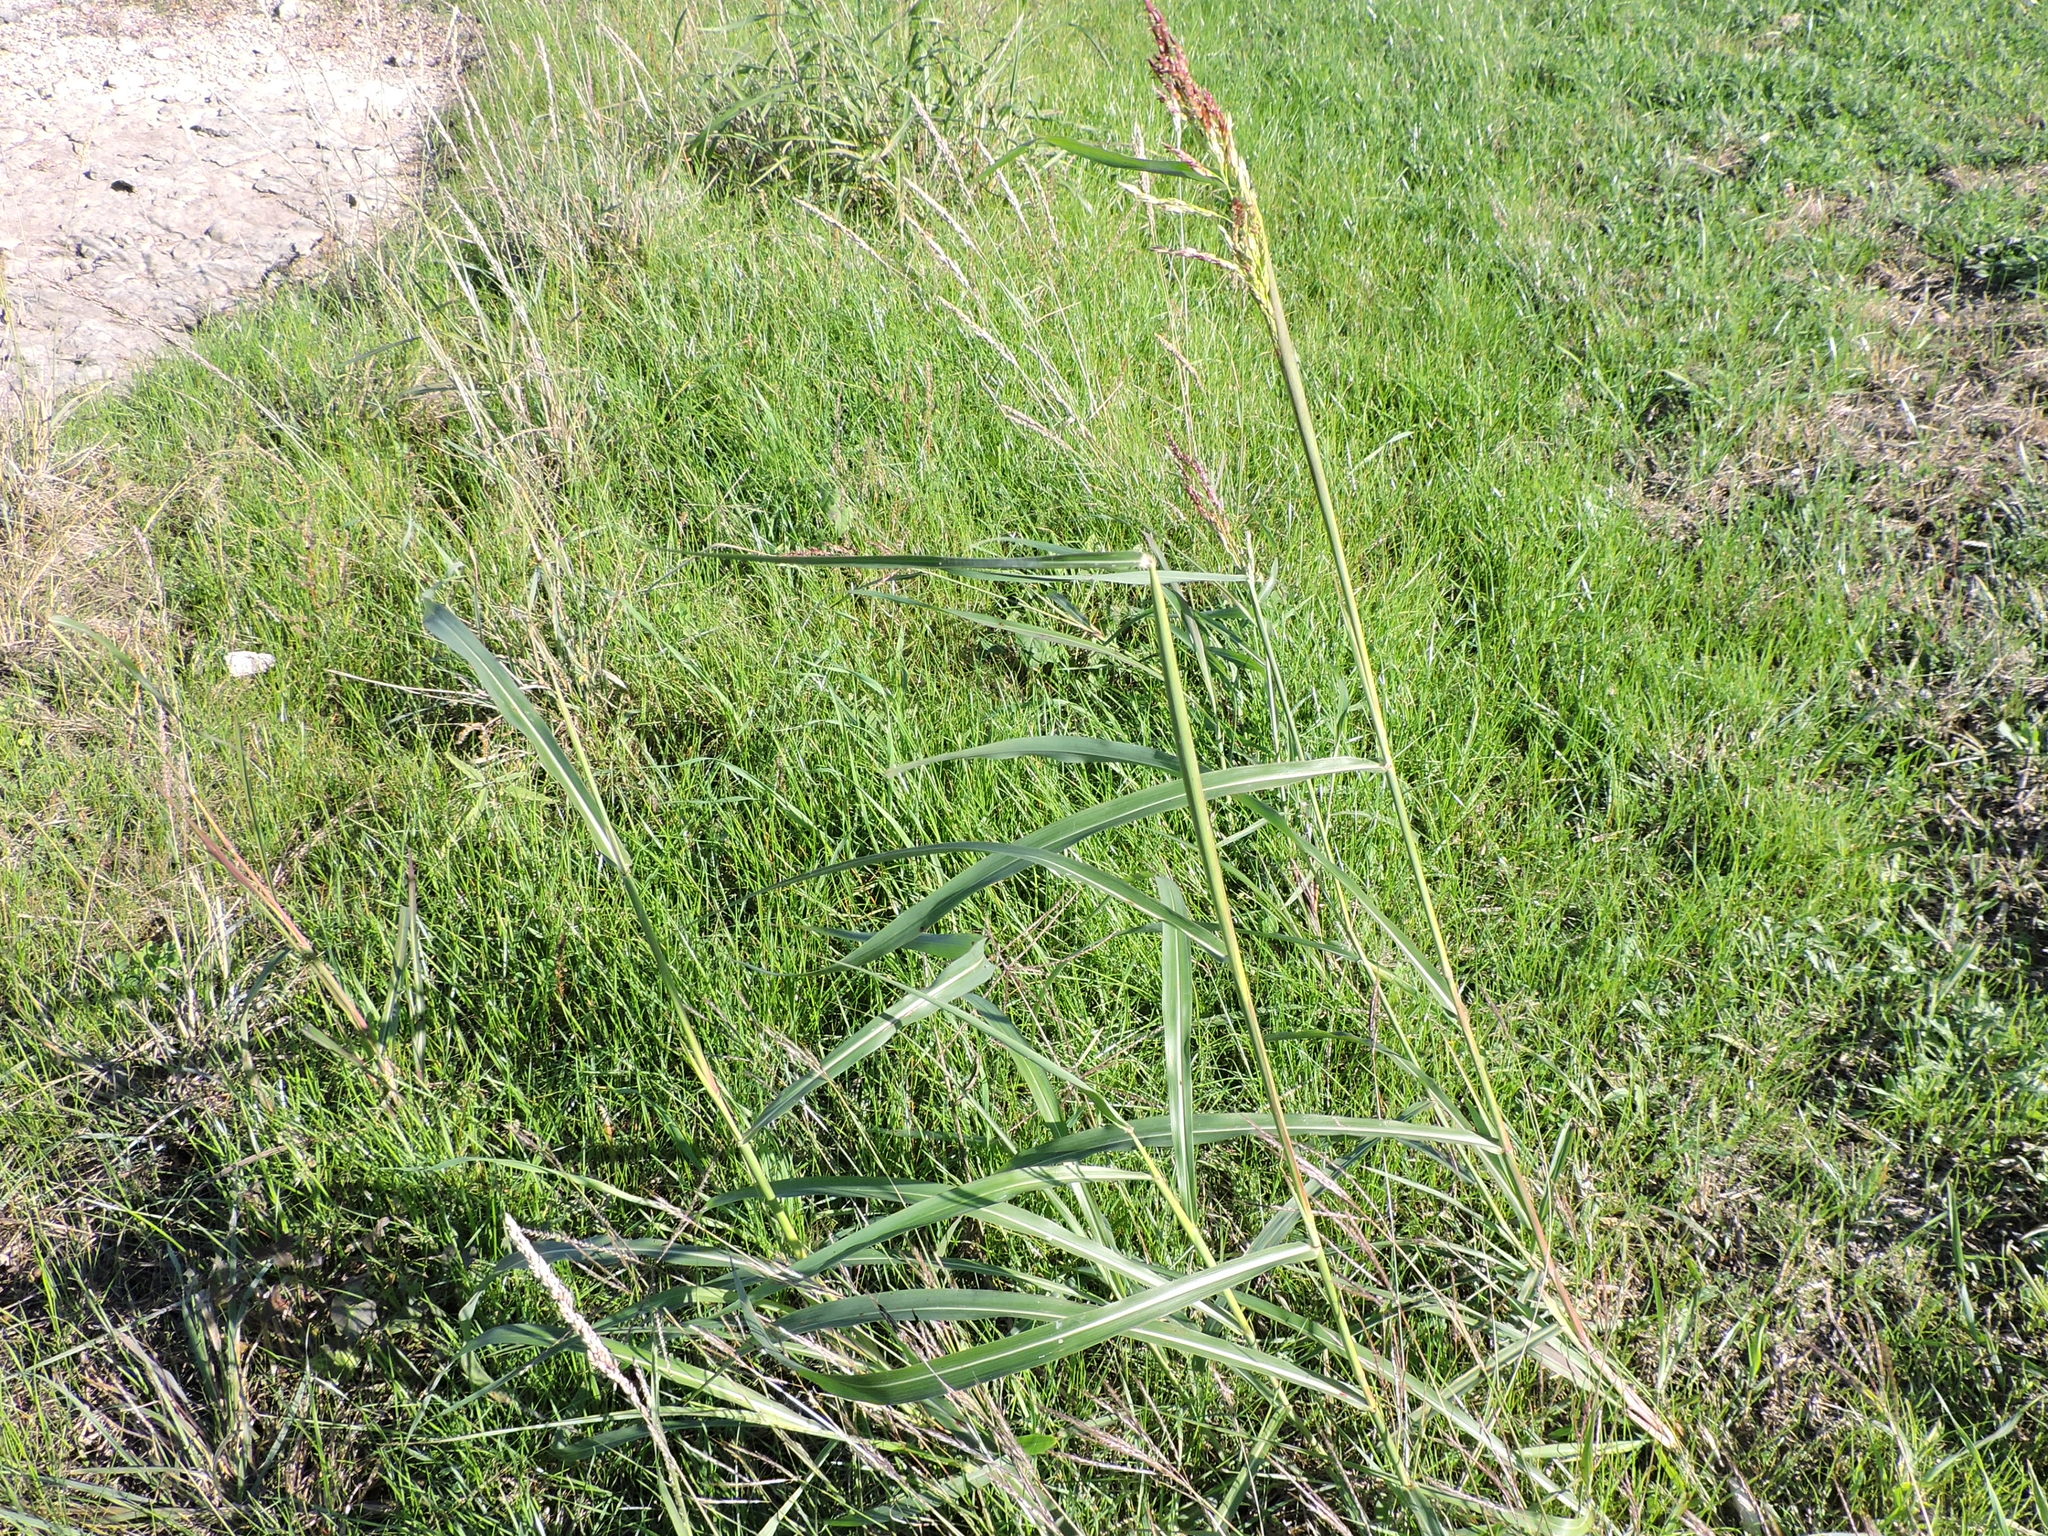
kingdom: Plantae
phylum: Tracheophyta
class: Liliopsida
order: Poales
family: Poaceae
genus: Sorghum
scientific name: Sorghum halepense
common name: Johnson-grass
